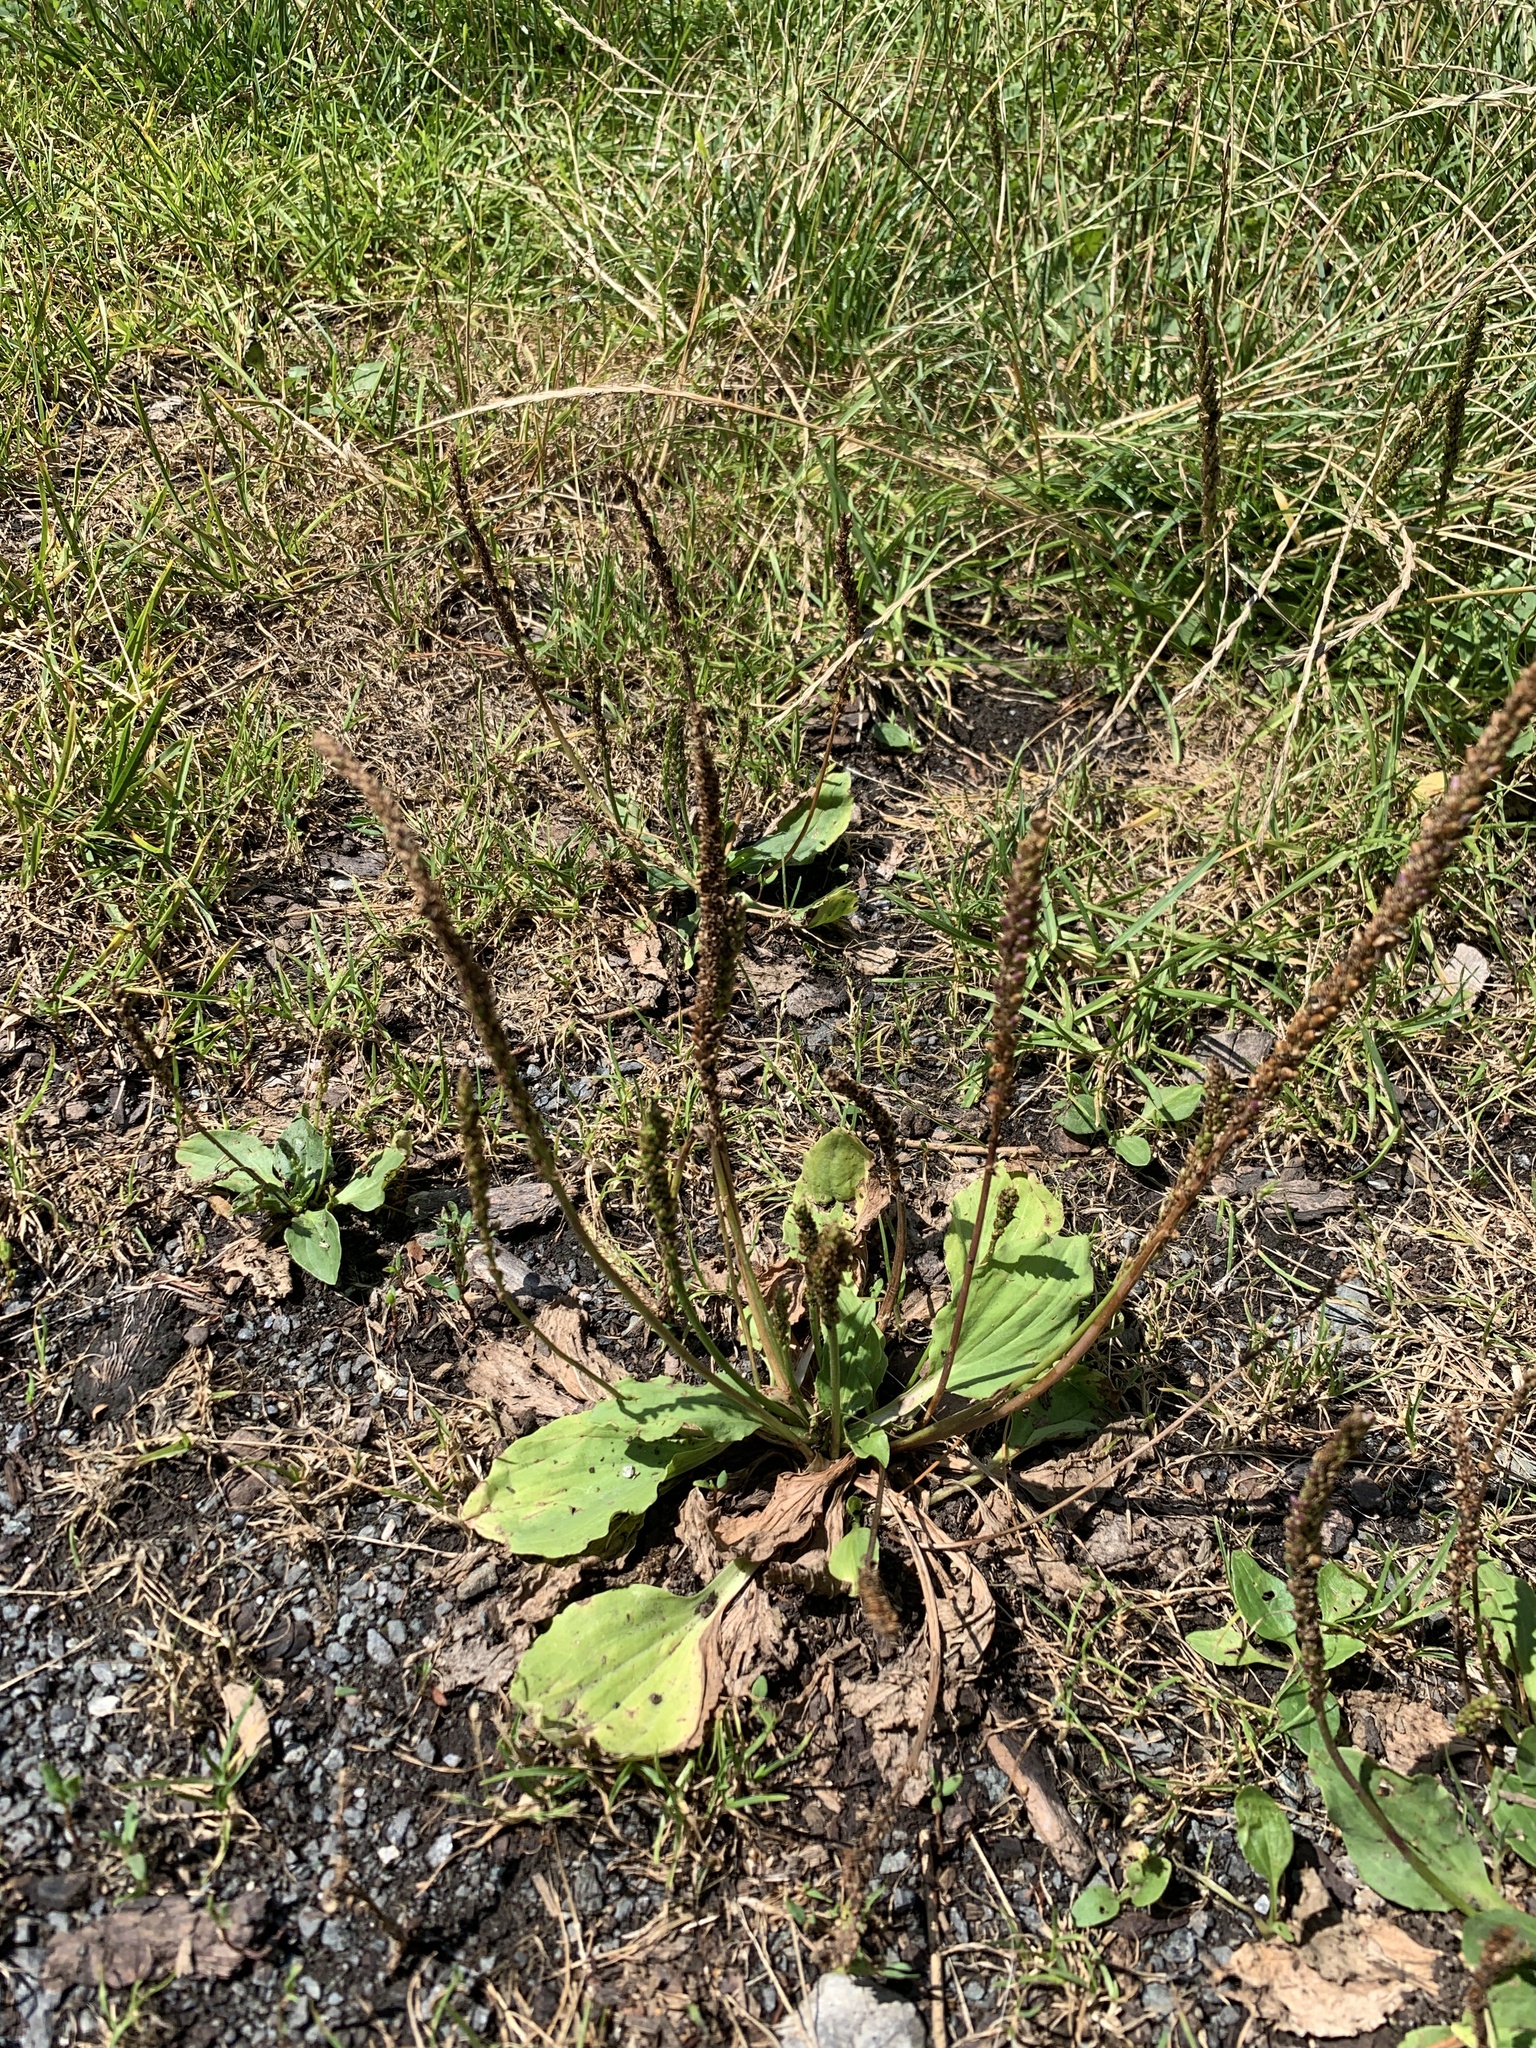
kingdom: Plantae
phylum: Tracheophyta
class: Magnoliopsida
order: Lamiales
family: Plantaginaceae
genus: Plantago
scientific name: Plantago major
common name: Common plantain
